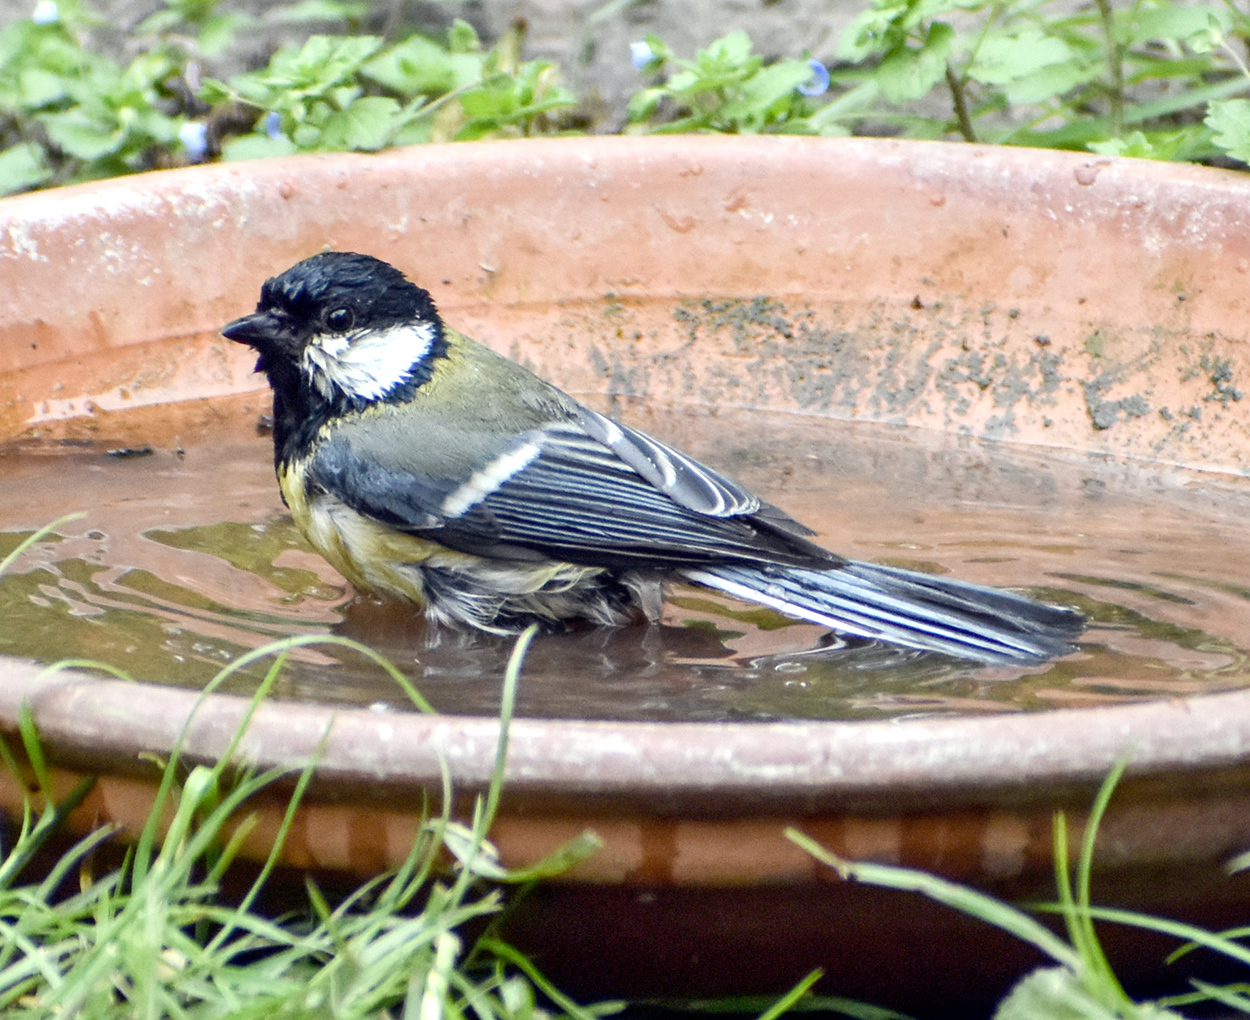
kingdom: Animalia
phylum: Chordata
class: Aves
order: Passeriformes
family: Paridae
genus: Parus
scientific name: Parus major
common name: Great tit
